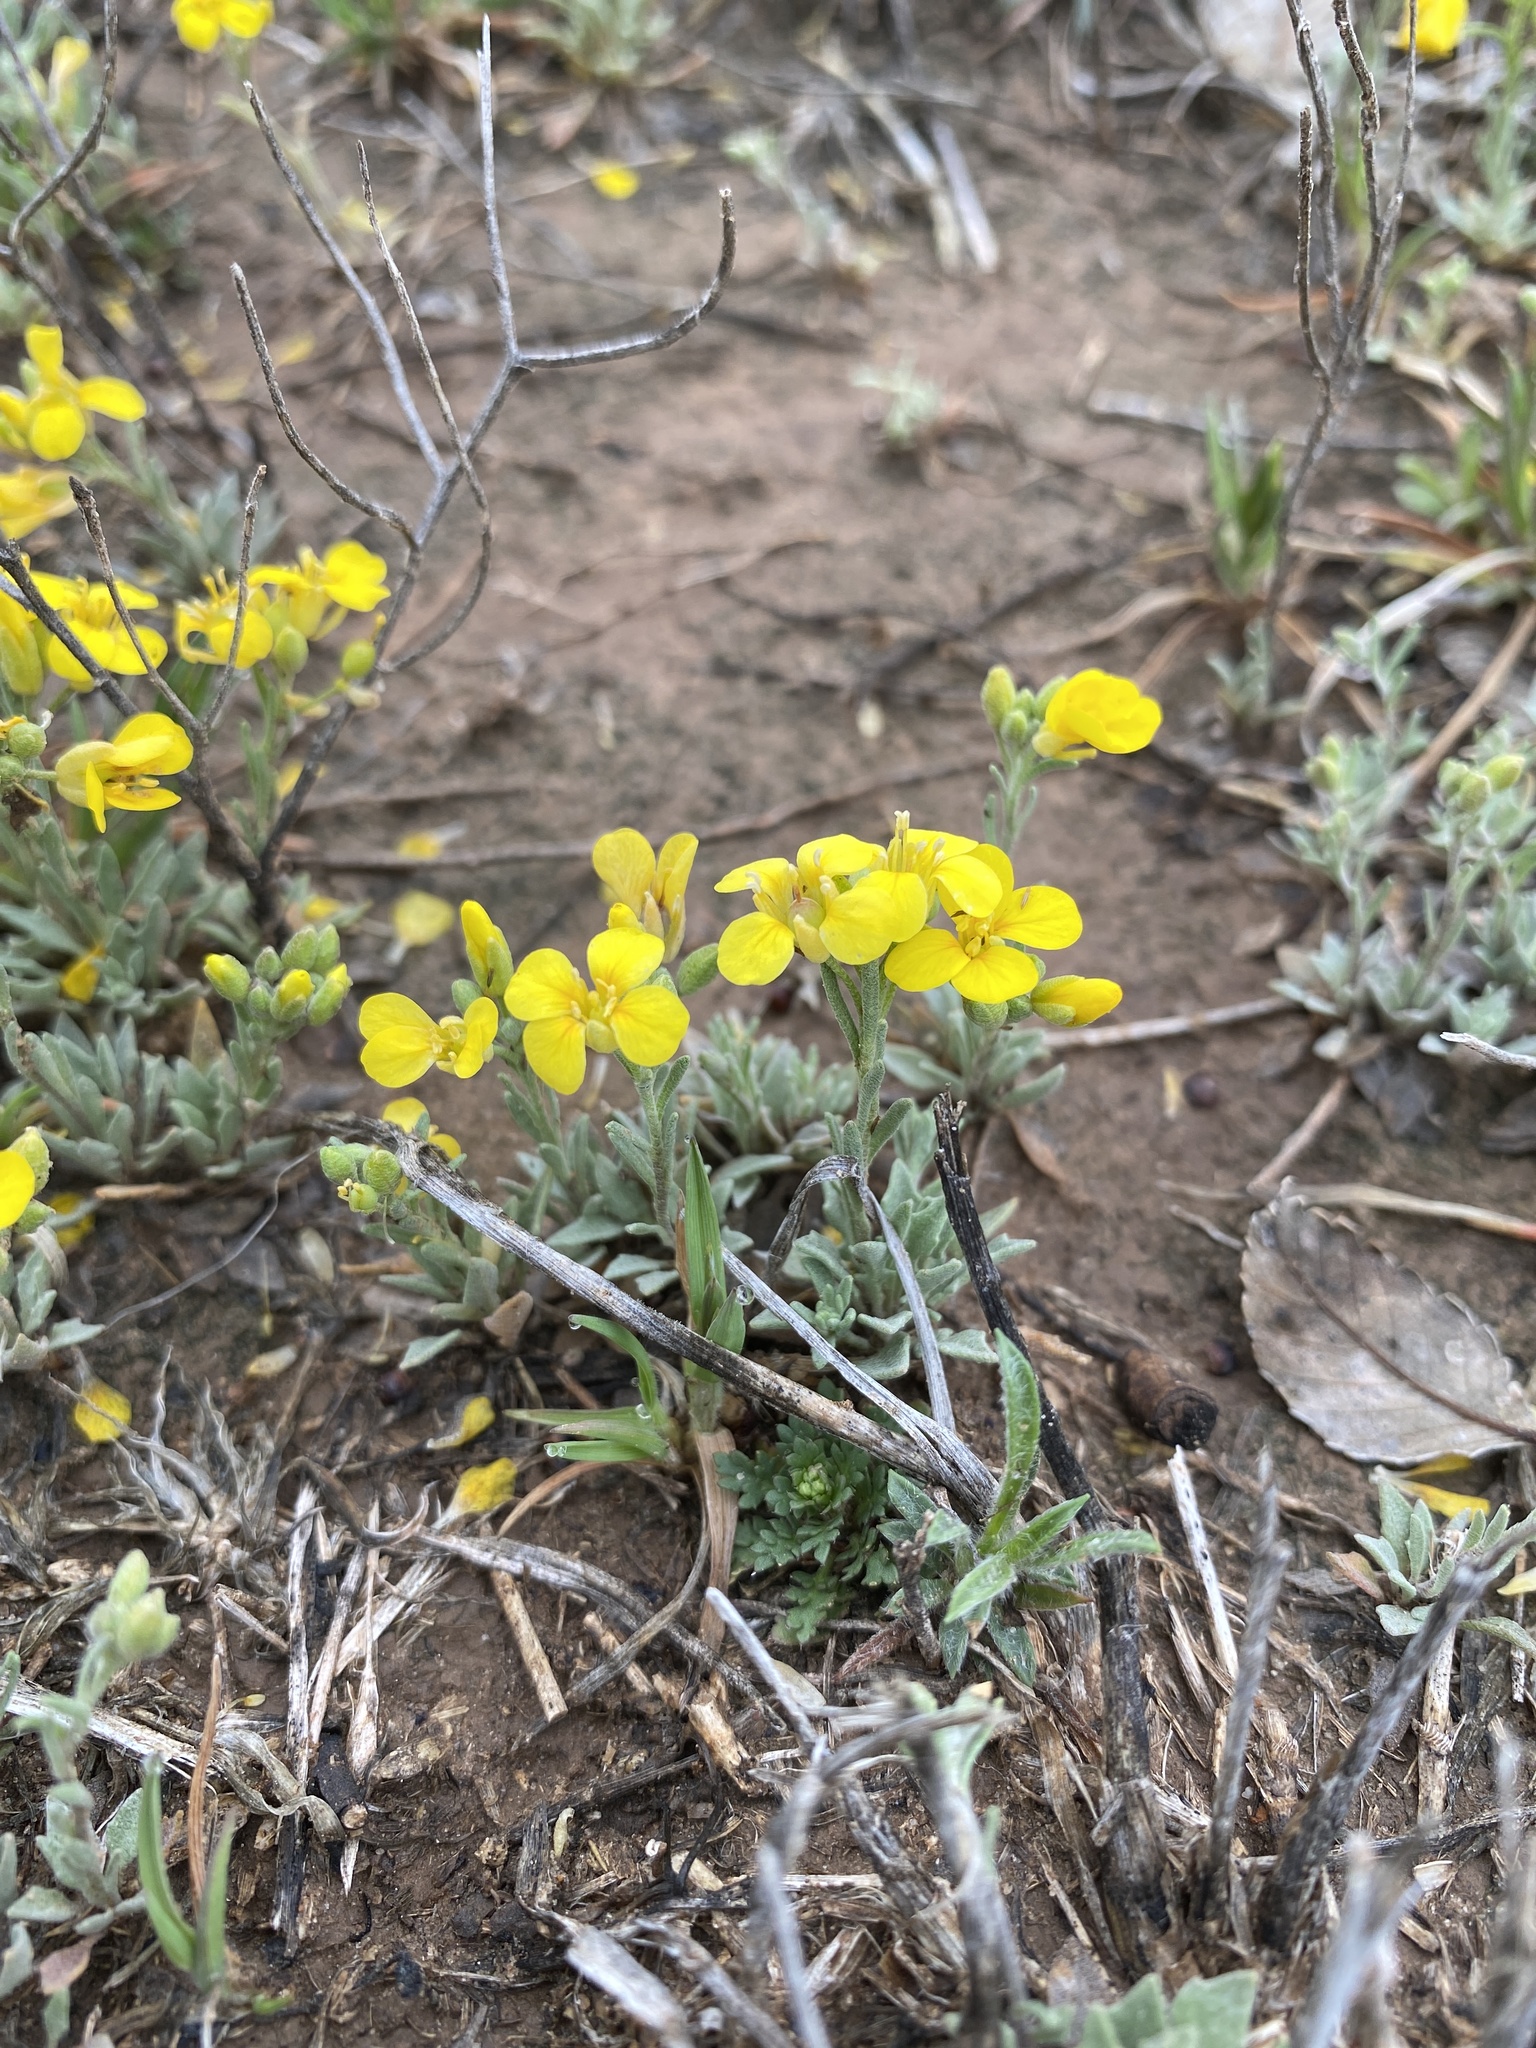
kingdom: Plantae
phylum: Tracheophyta
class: Magnoliopsida
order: Brassicales
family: Brassicaceae
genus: Physaria
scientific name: Physaria gordonii
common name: Gordon's bladderpod
